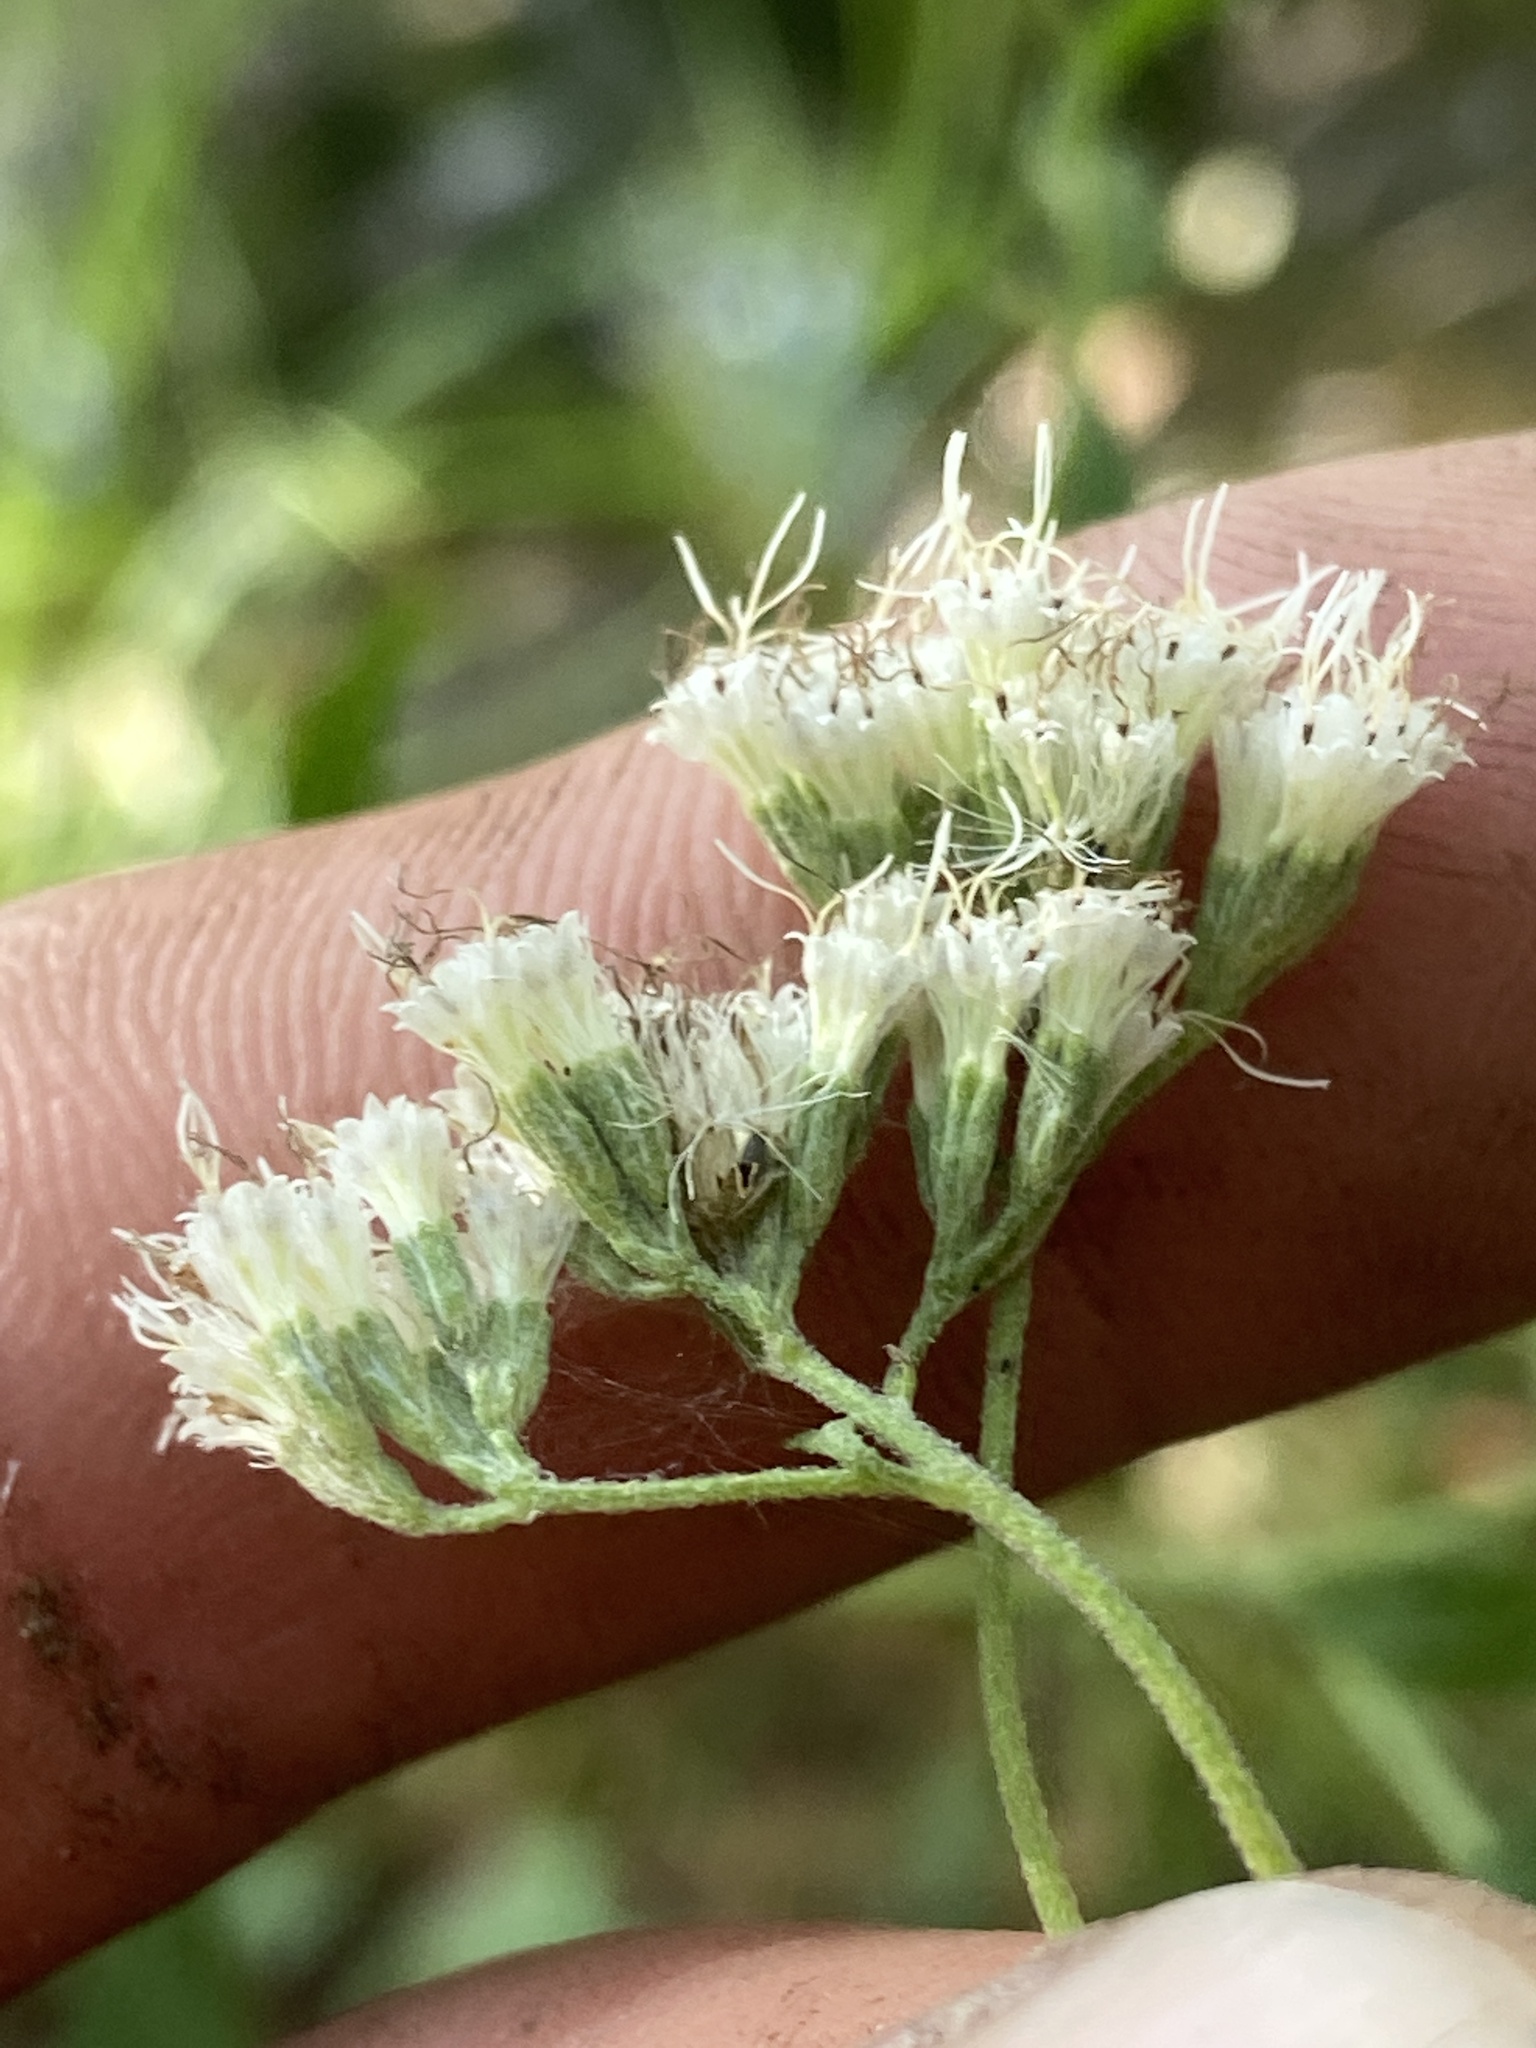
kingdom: Plantae
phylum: Tracheophyta
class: Magnoliopsida
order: Asterales
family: Asteraceae
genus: Eupatorium
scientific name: Eupatorium semiserratum
